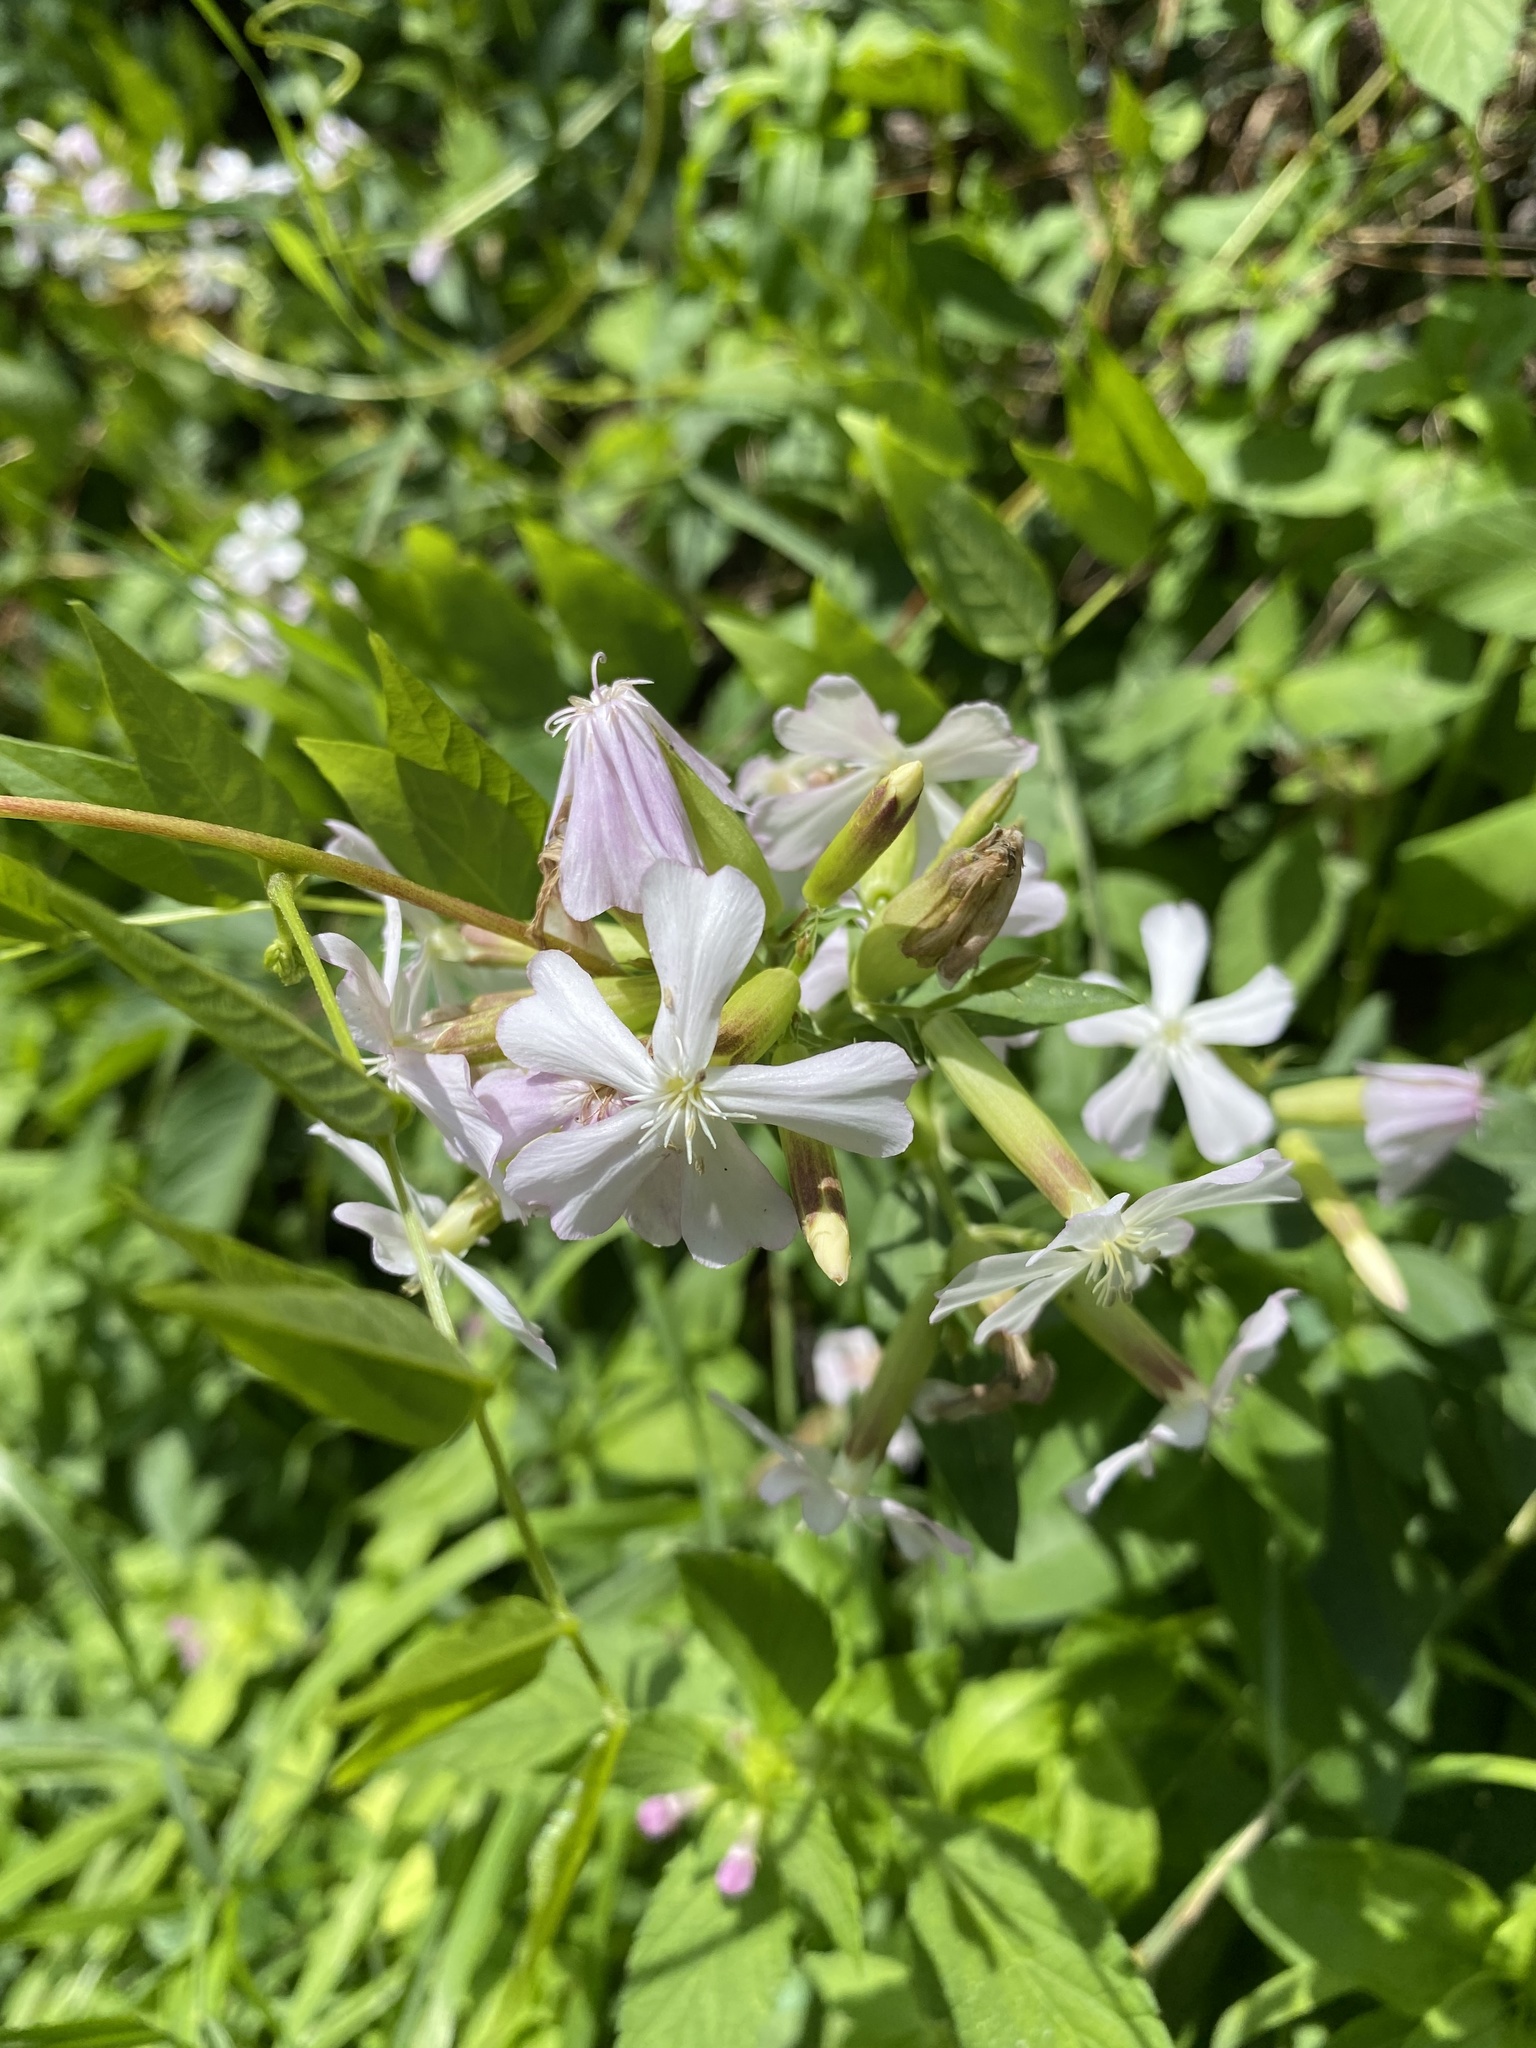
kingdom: Plantae
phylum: Tracheophyta
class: Magnoliopsida
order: Caryophyllales
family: Caryophyllaceae
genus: Saponaria
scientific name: Saponaria officinalis
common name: Soapwort
